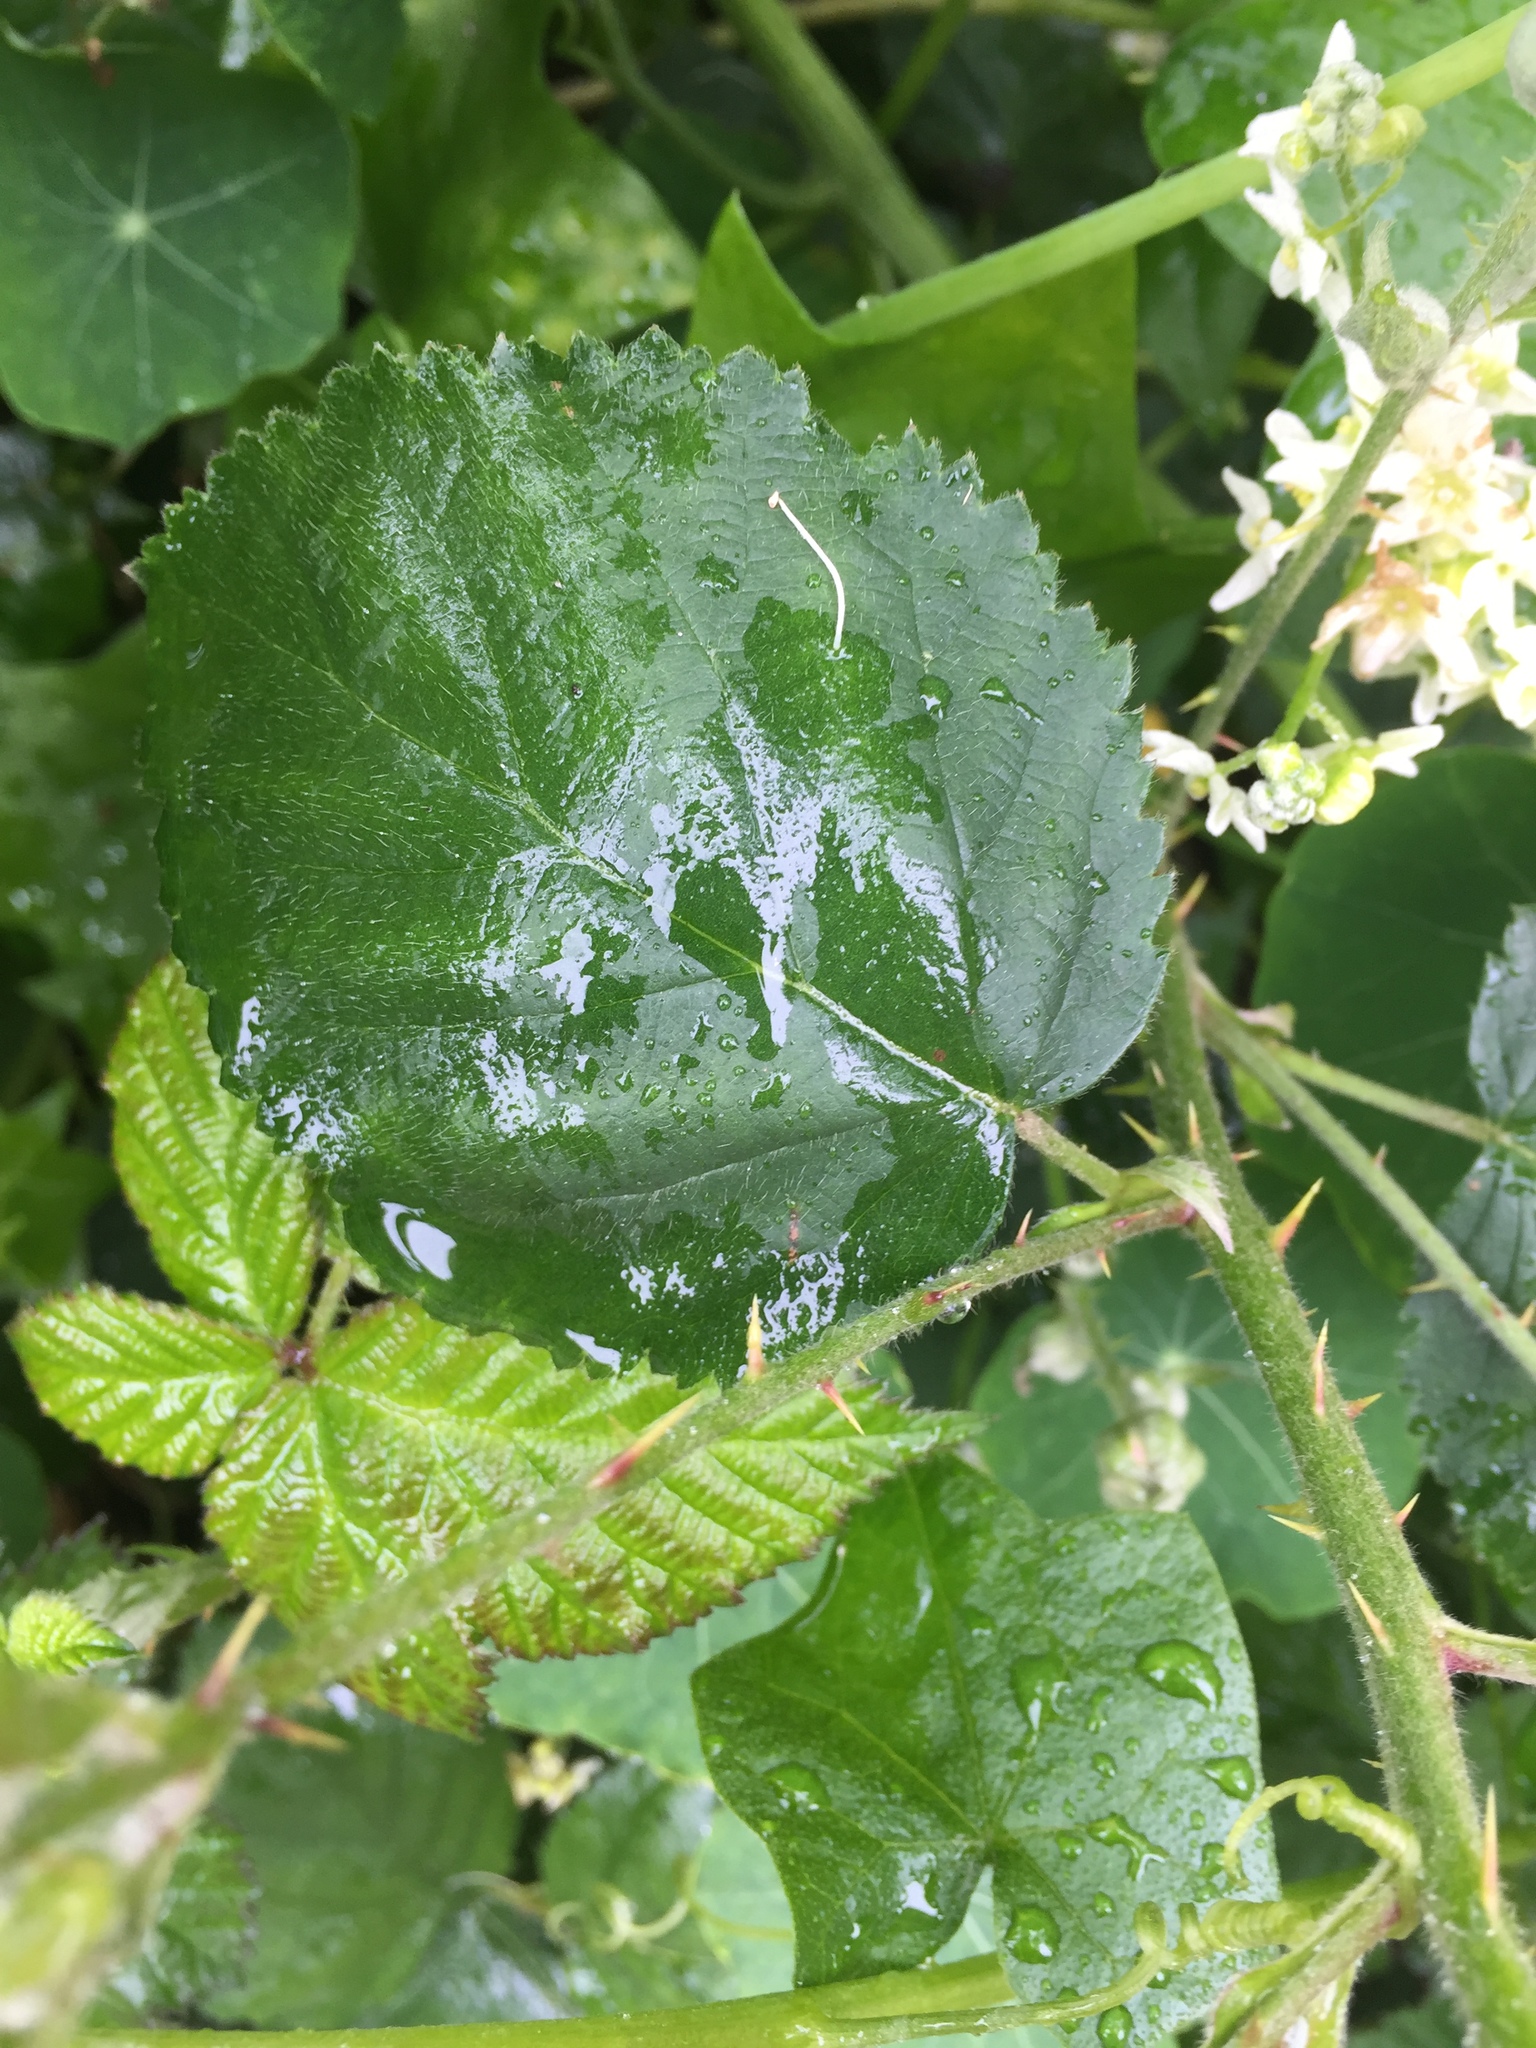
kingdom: Plantae
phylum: Tracheophyta
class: Magnoliopsida
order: Rosales
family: Rosaceae
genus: Rubus
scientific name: Rubus armeniacus
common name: Himalayan blackberry
